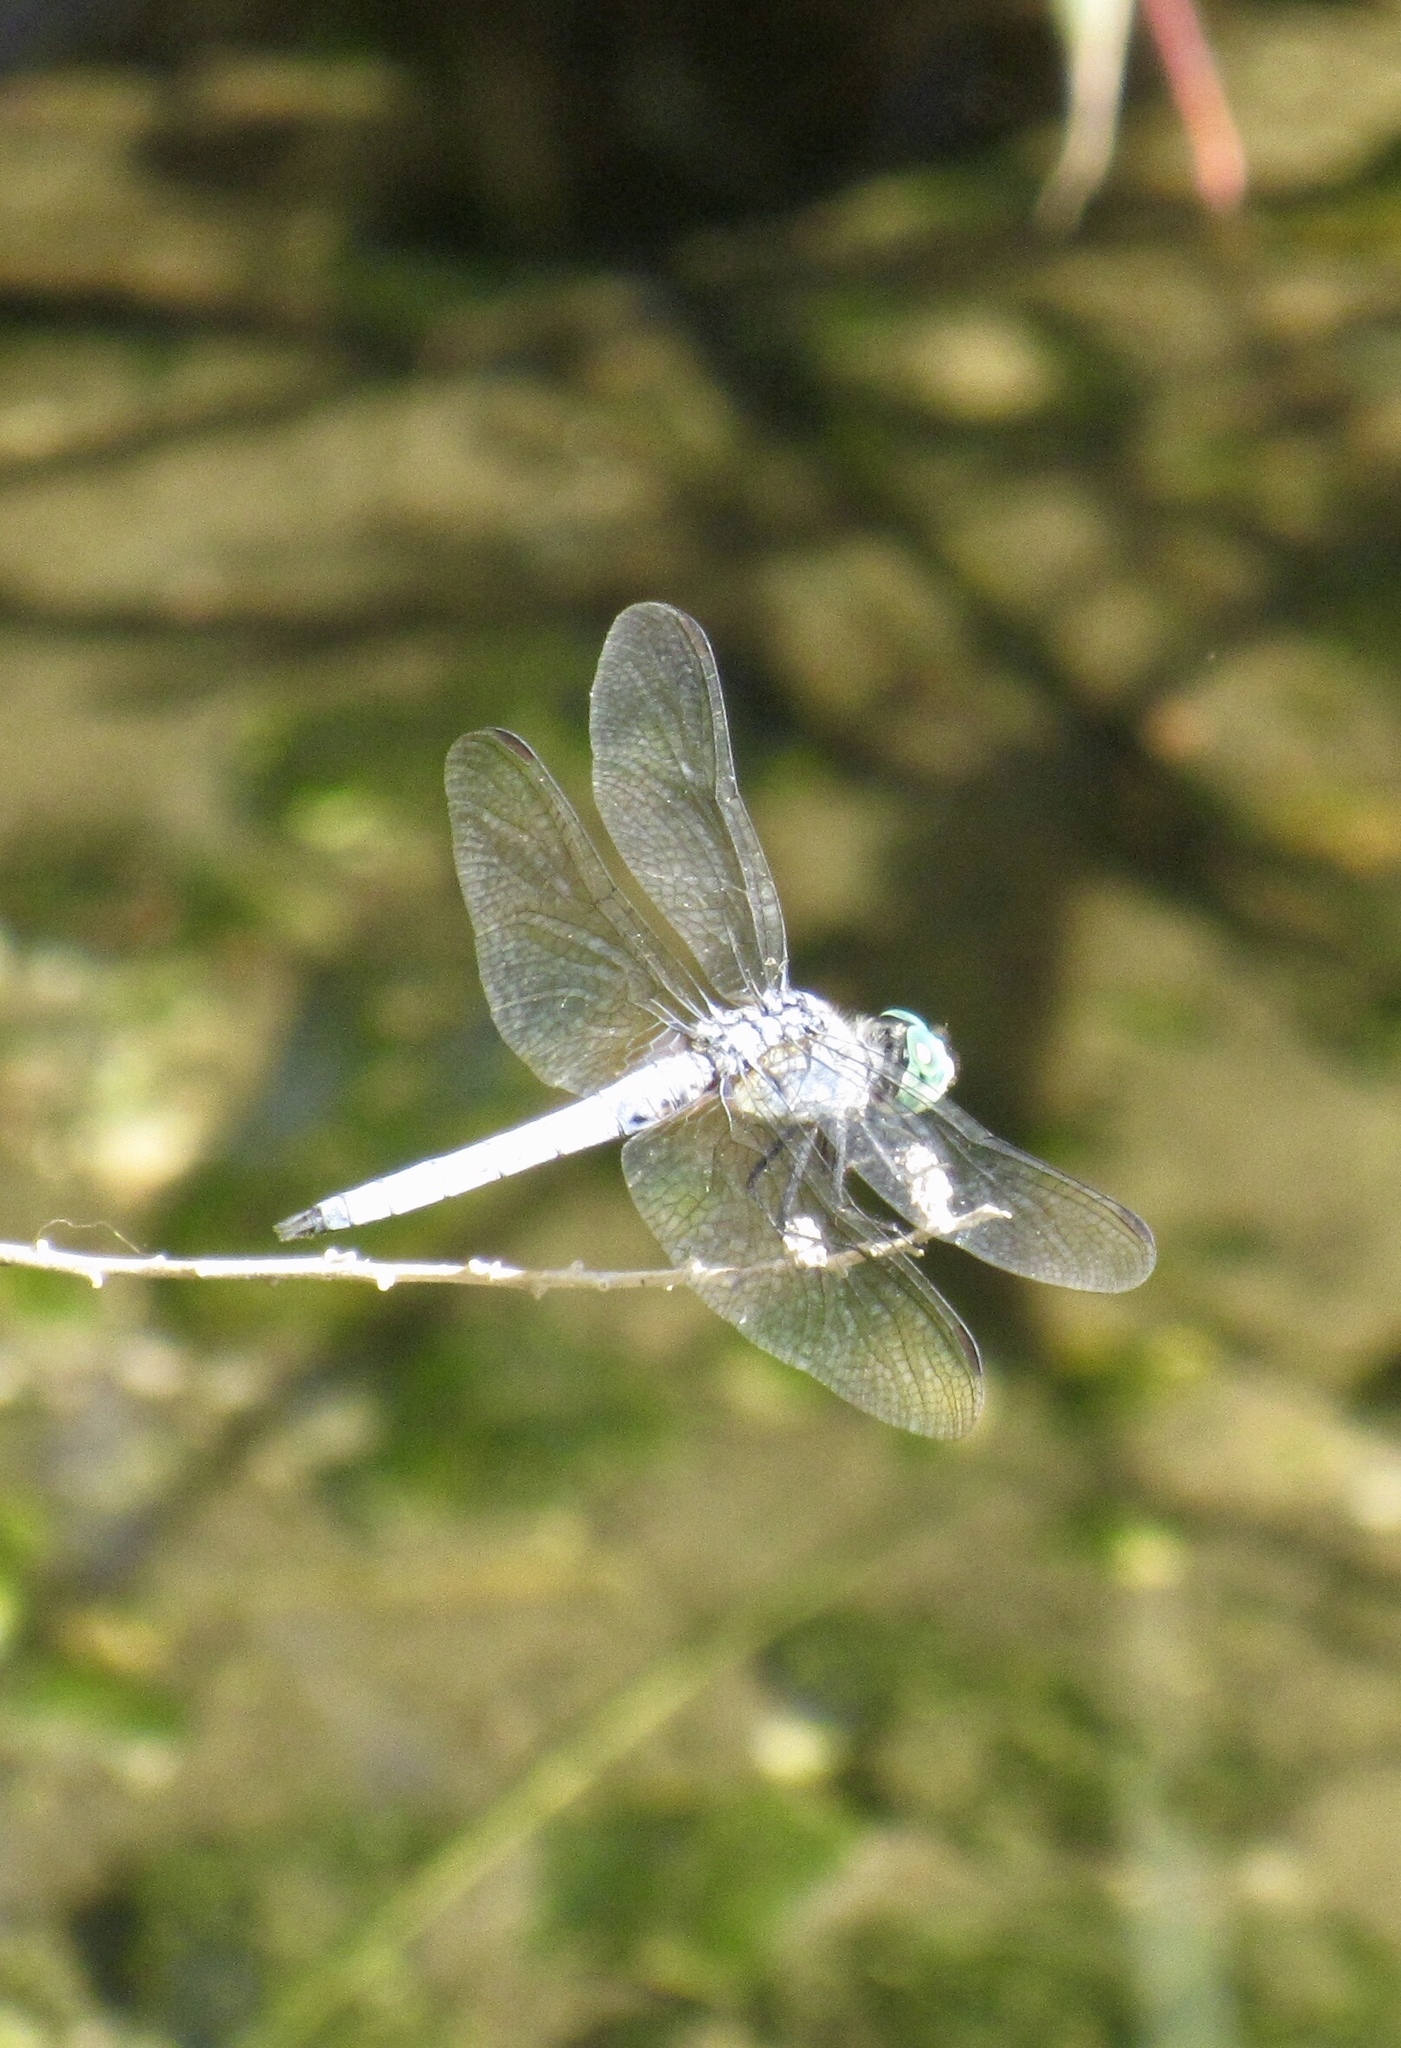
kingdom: Animalia
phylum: Arthropoda
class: Insecta
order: Odonata
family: Libellulidae
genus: Pachydiplax
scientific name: Pachydiplax longipennis
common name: Blue dasher
